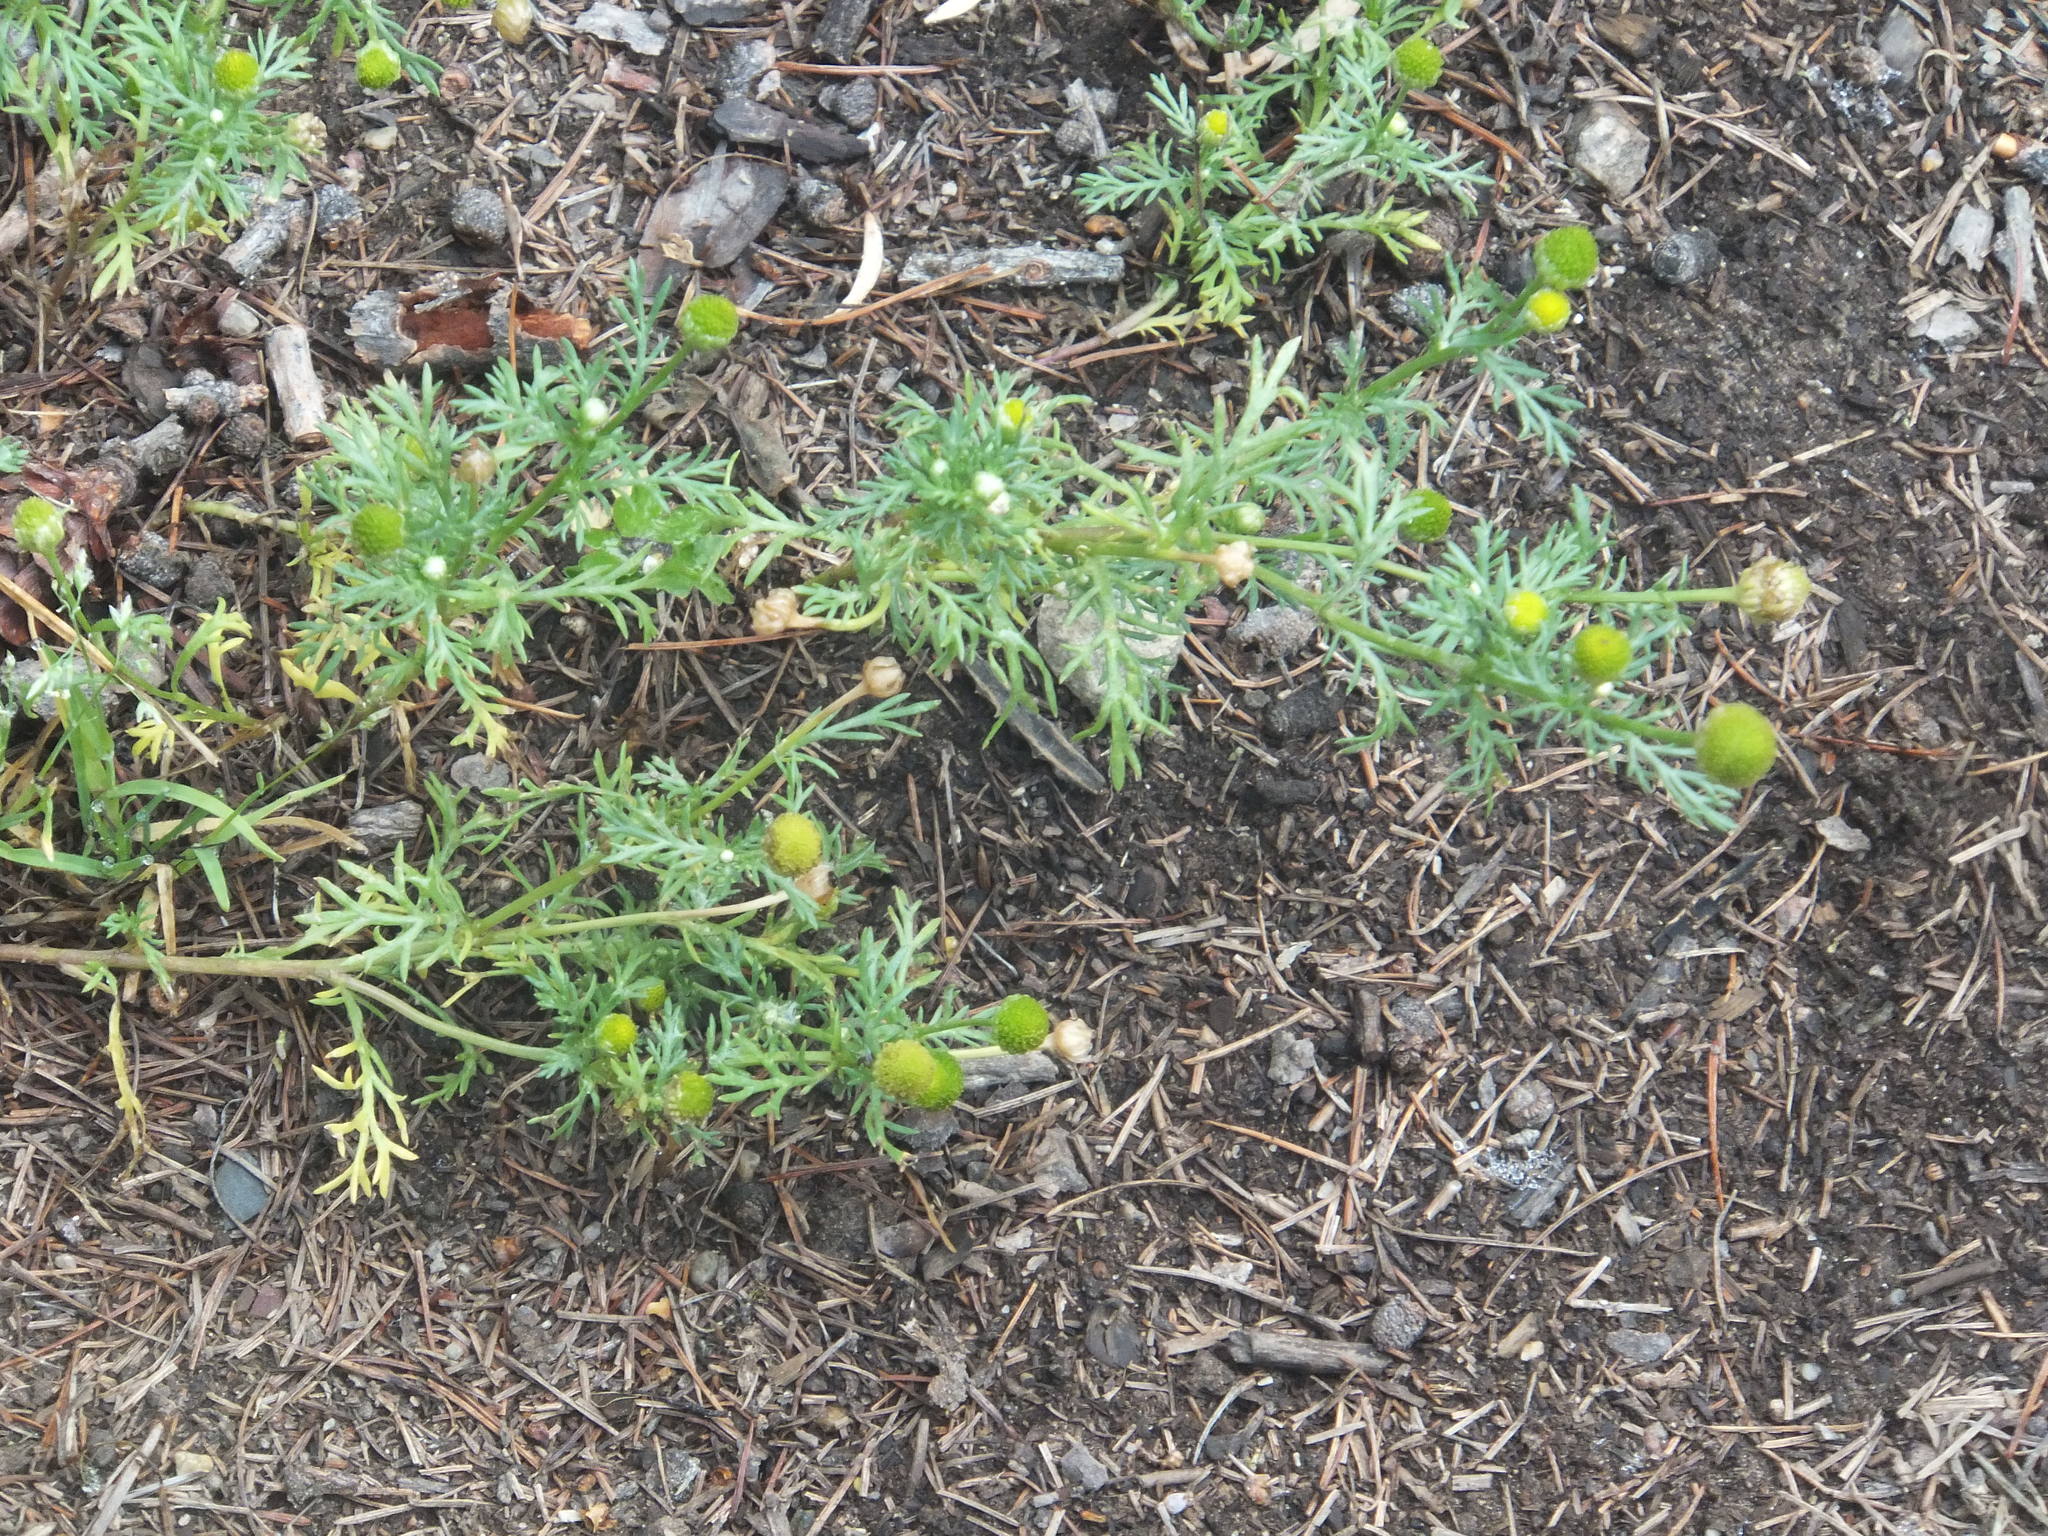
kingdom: Plantae
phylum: Tracheophyta
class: Magnoliopsida
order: Asterales
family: Asteraceae
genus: Matricaria
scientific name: Matricaria discoidea
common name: Disc mayweed
